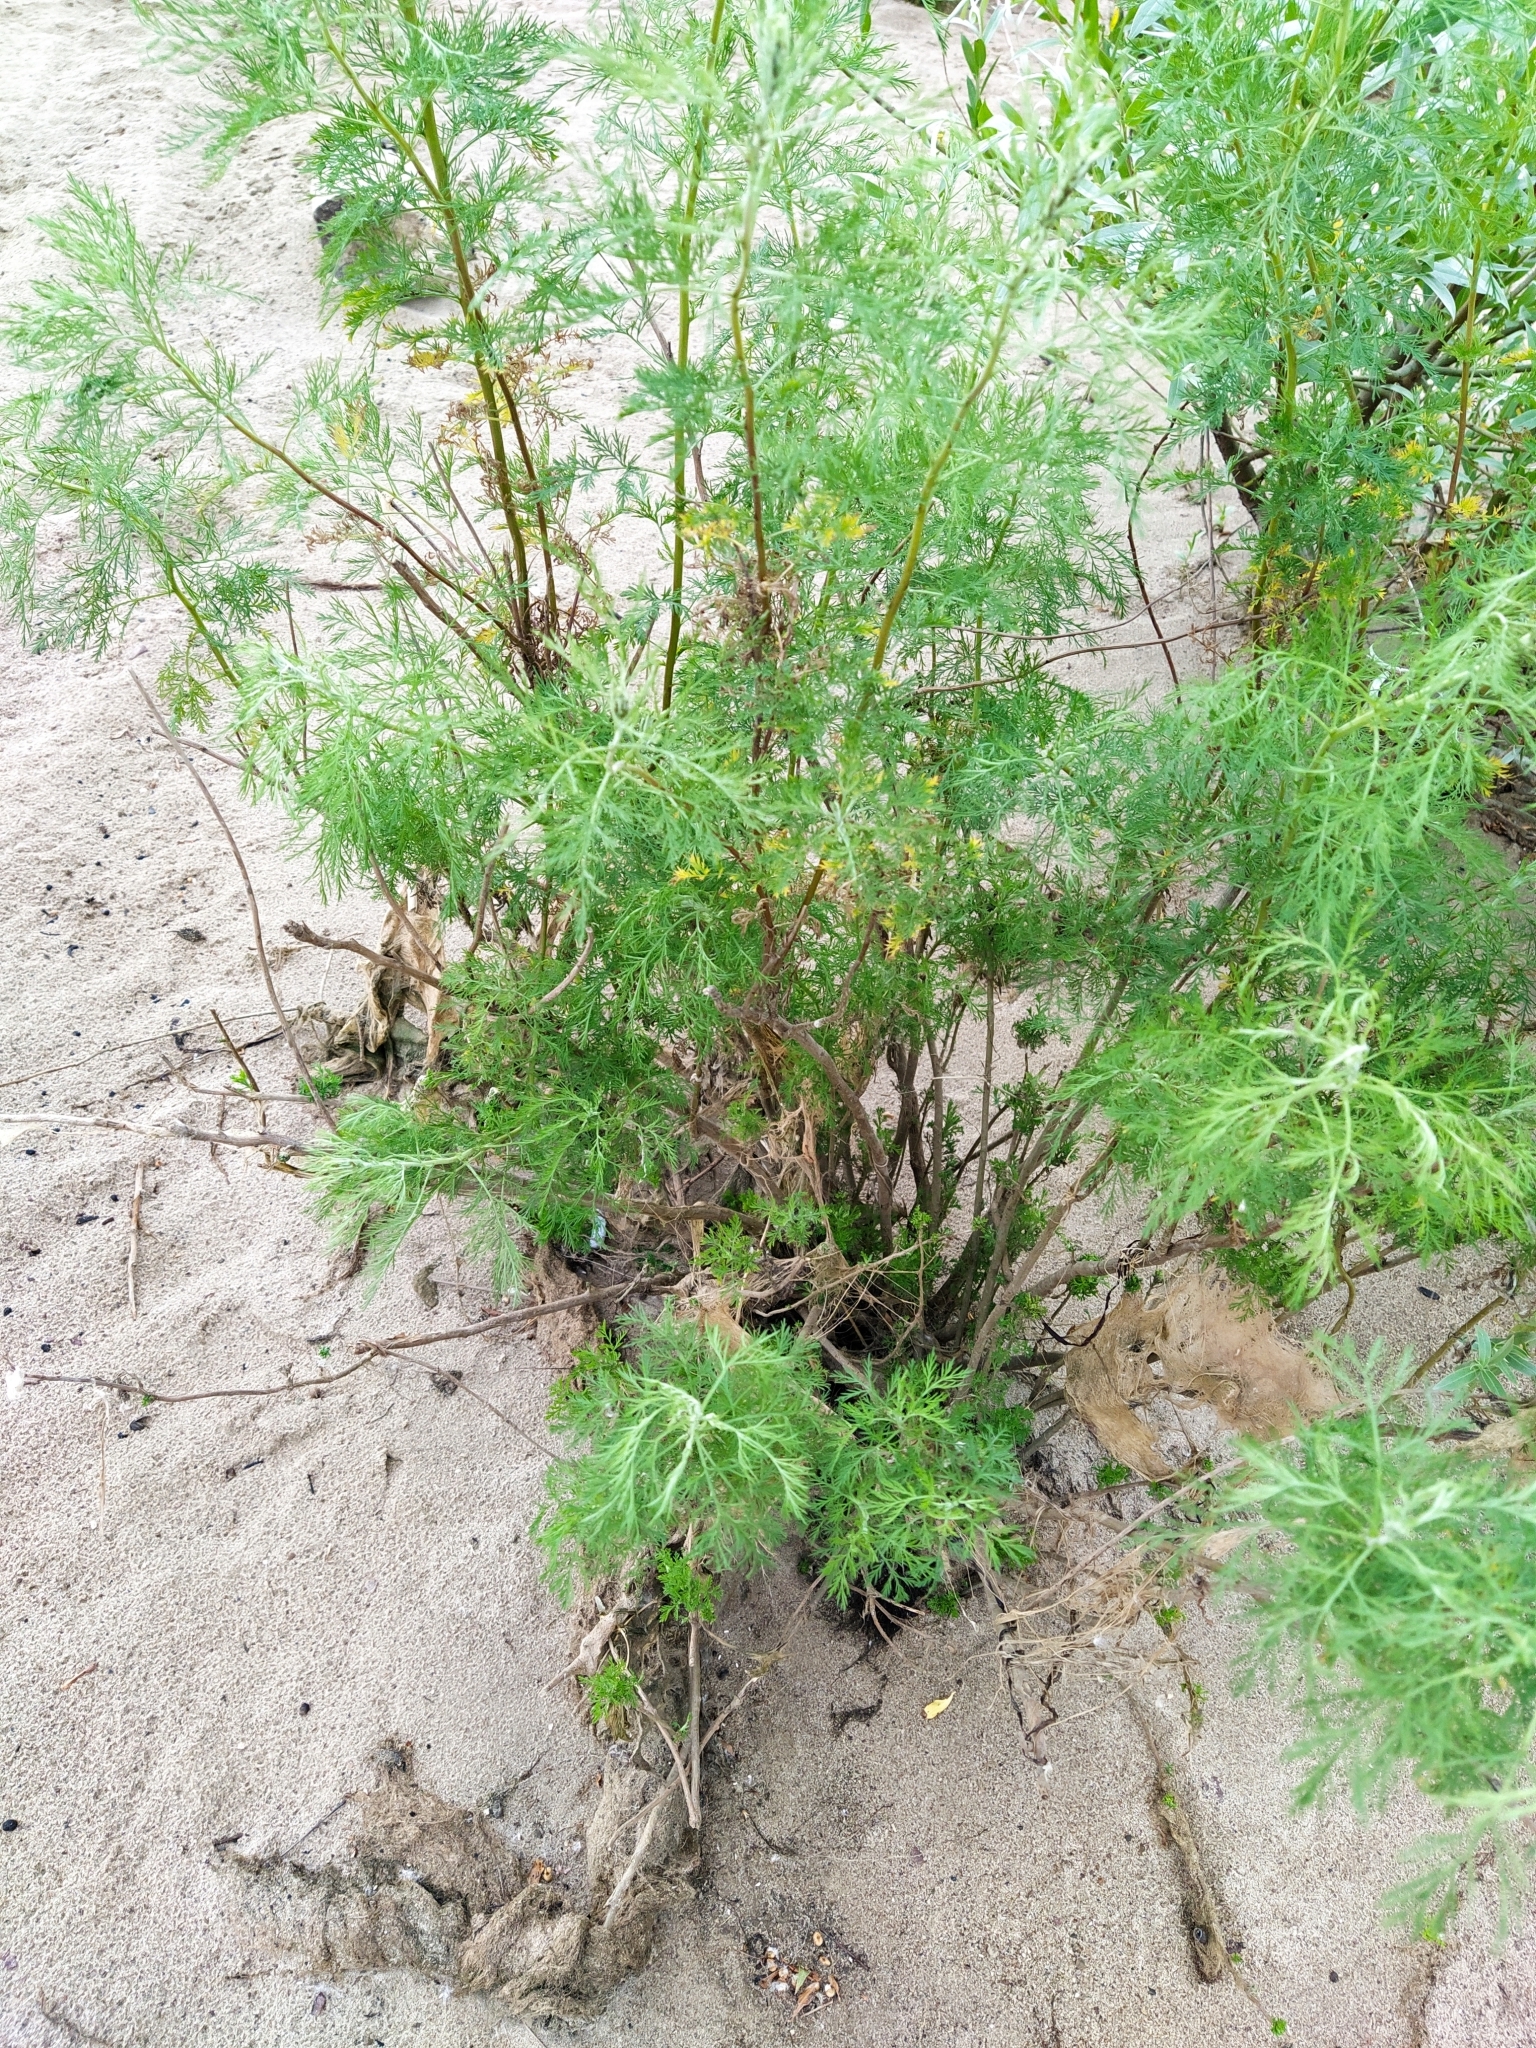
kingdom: Plantae
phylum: Tracheophyta
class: Magnoliopsida
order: Asterales
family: Asteraceae
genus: Artemisia
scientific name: Artemisia abrotanum
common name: Southernwood
